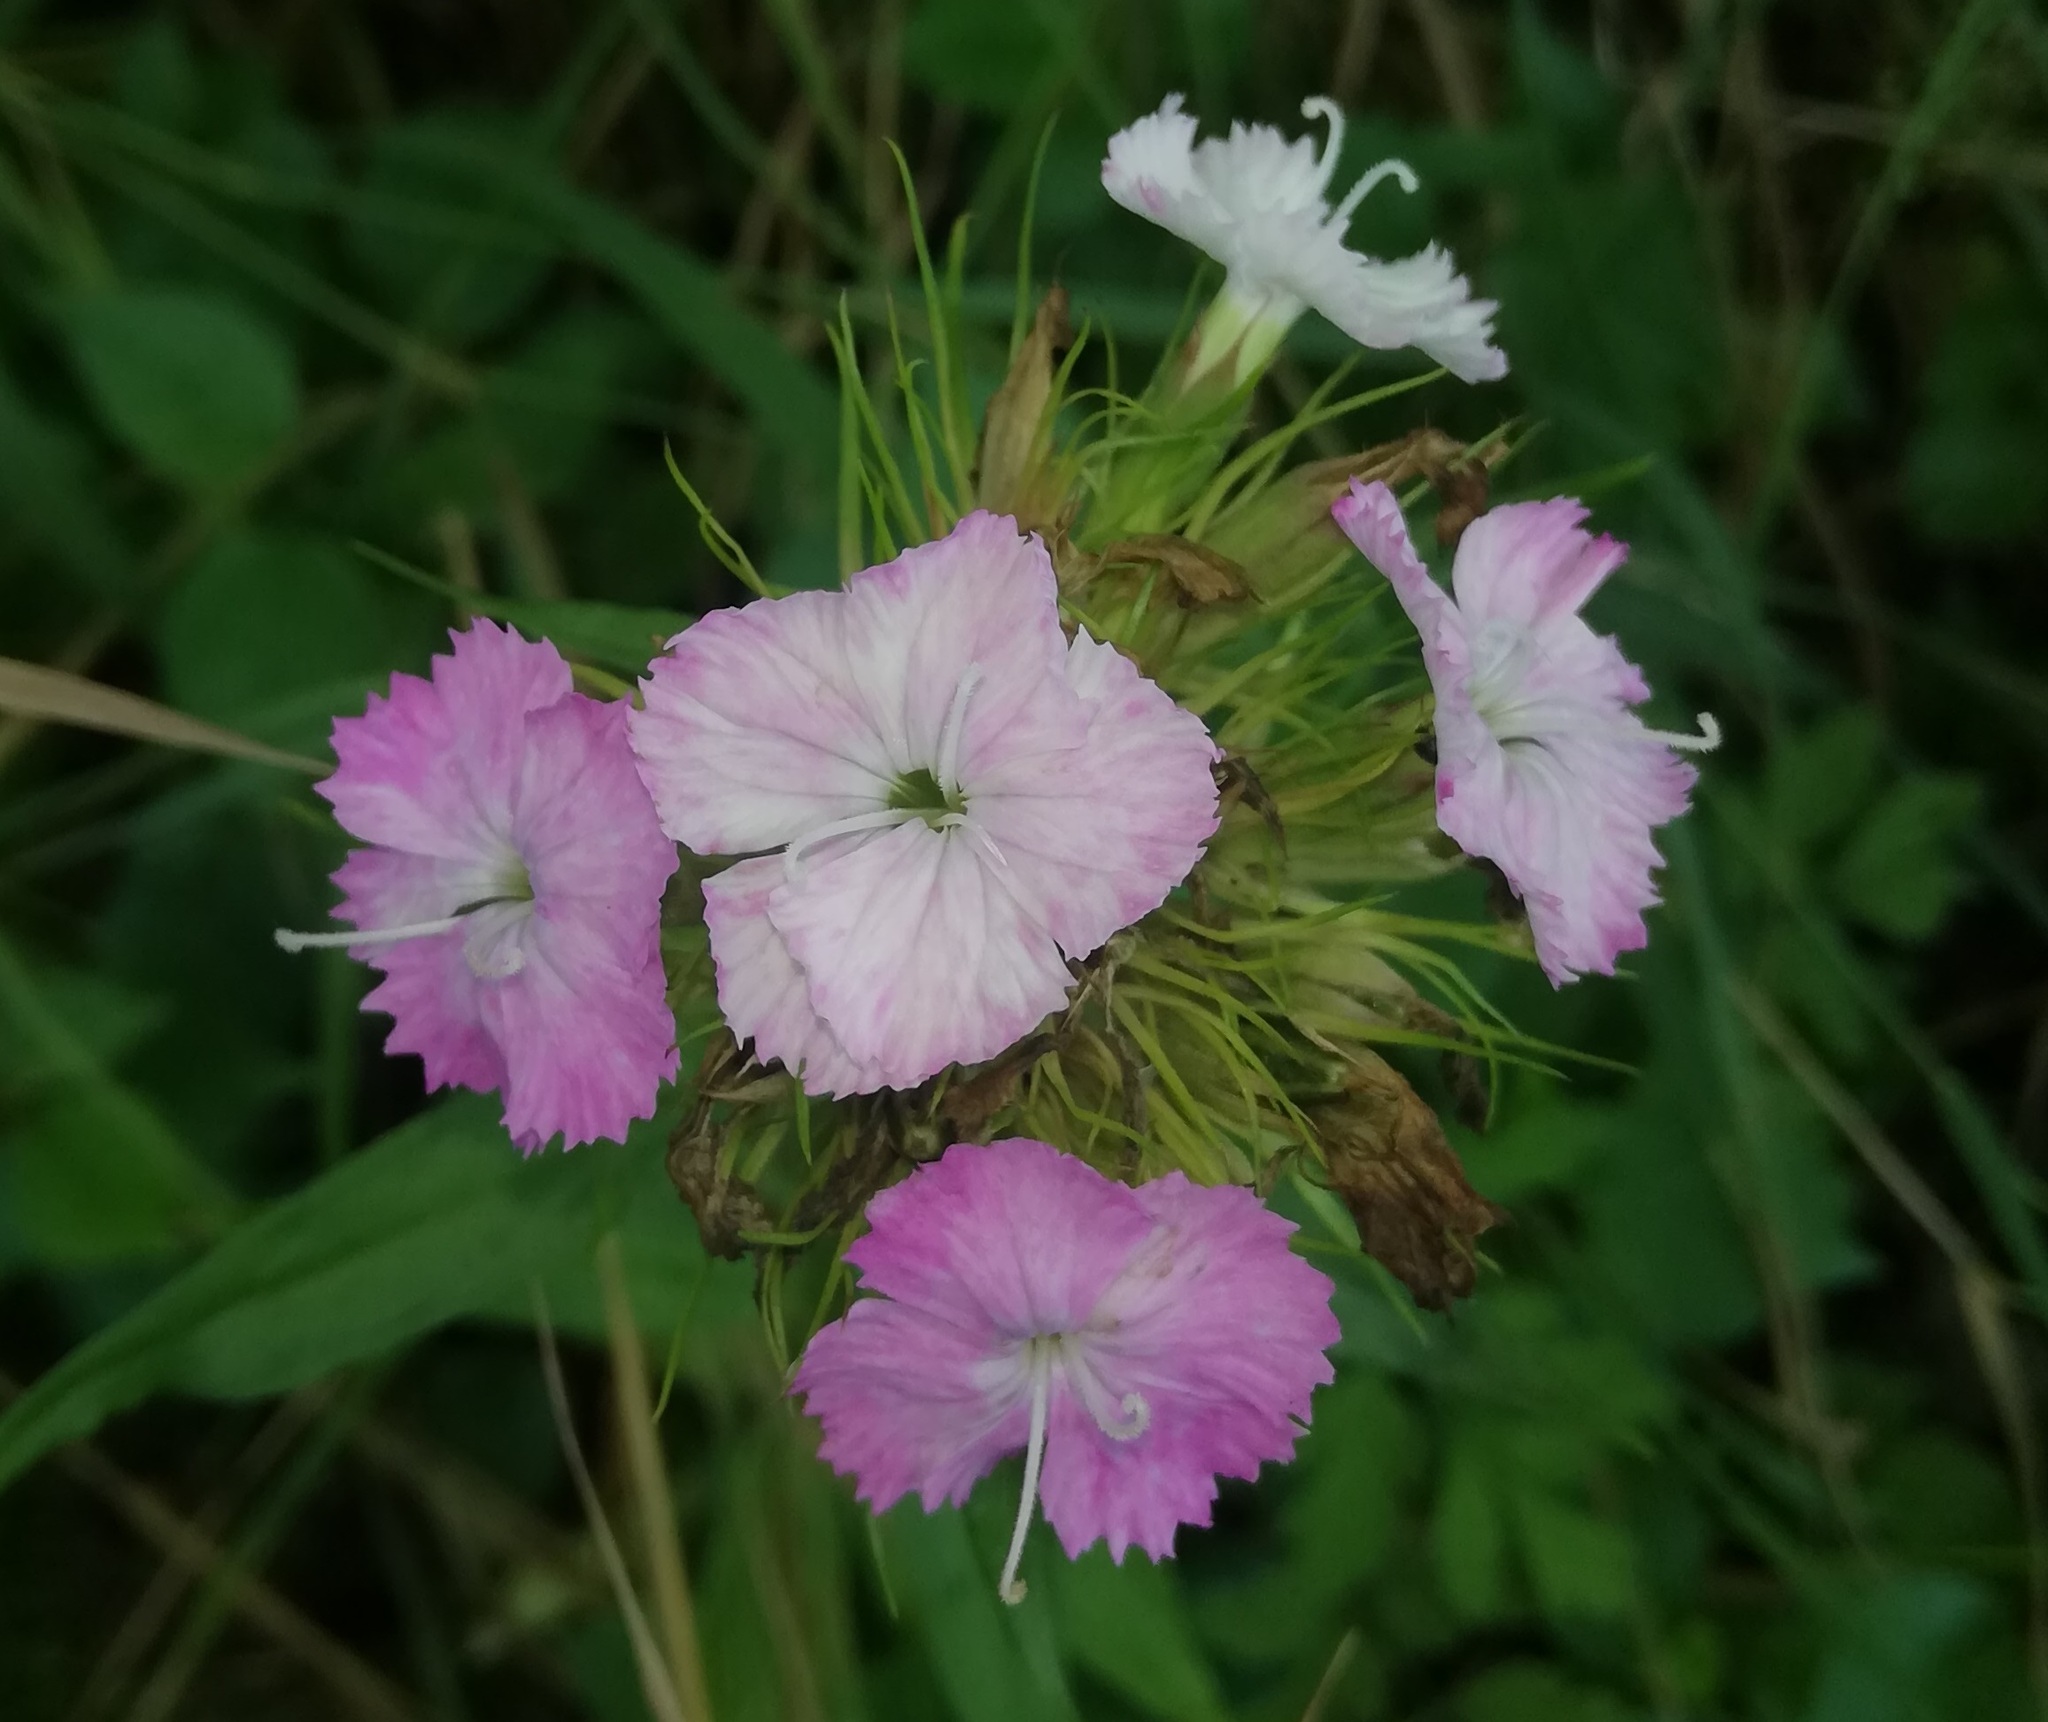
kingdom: Plantae
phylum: Tracheophyta
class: Magnoliopsida
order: Caryophyllales
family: Caryophyllaceae
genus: Dianthus
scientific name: Dianthus barbatus
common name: Sweet-william
